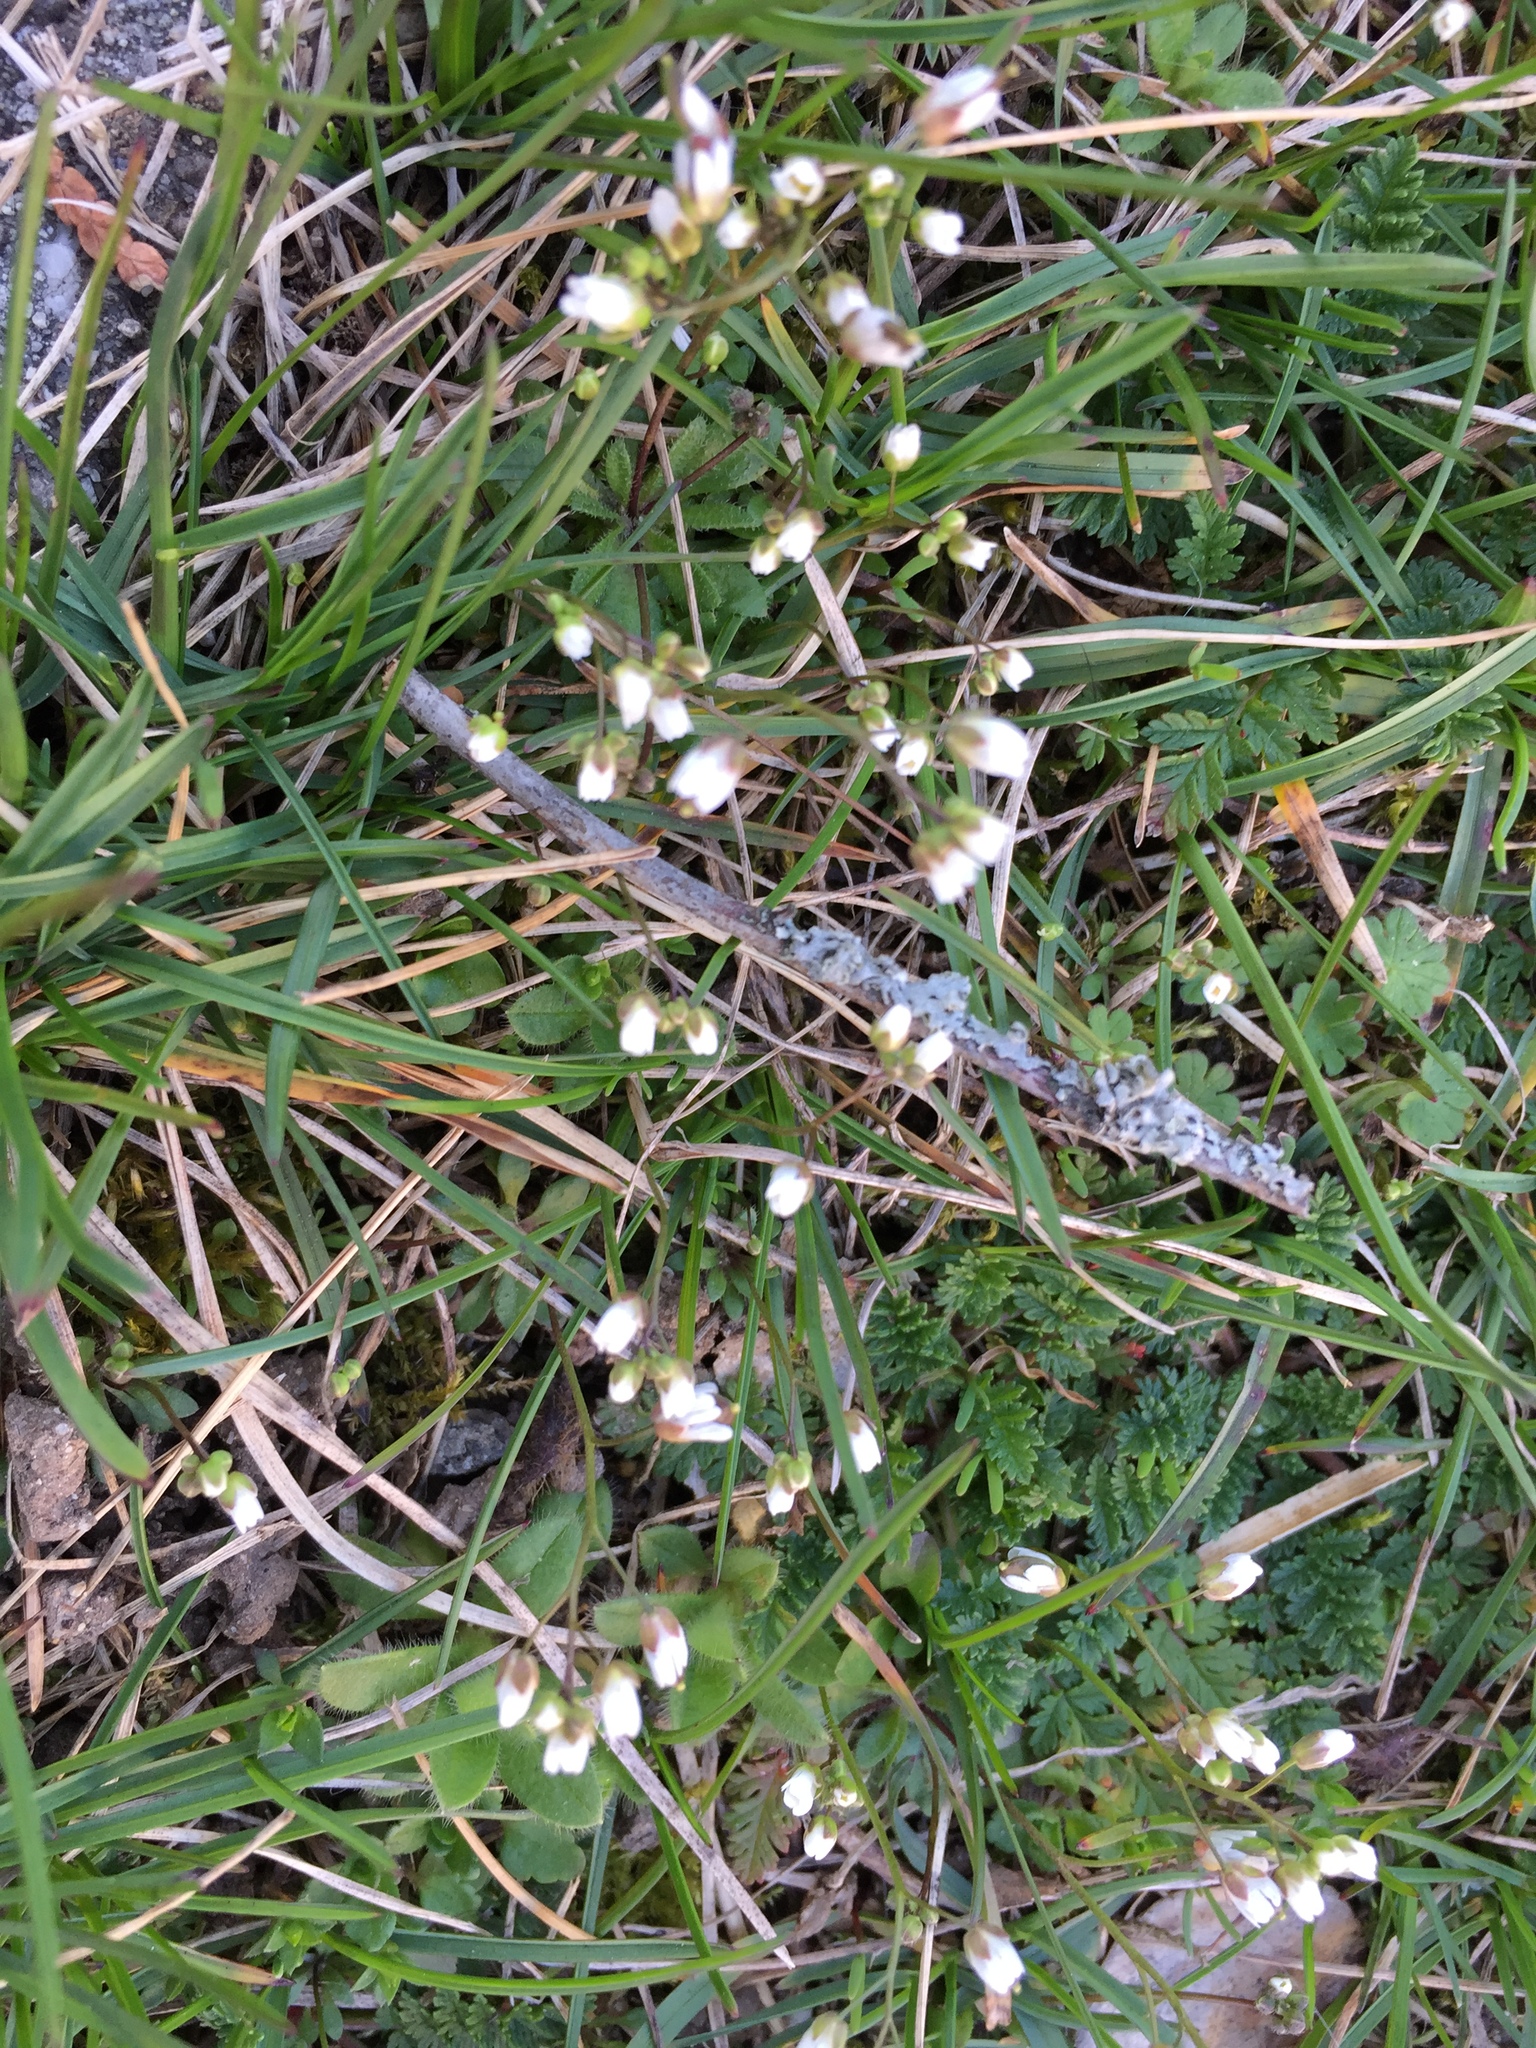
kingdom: Plantae
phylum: Tracheophyta
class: Magnoliopsida
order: Brassicales
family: Brassicaceae
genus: Draba
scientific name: Draba verna
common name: Spring draba
